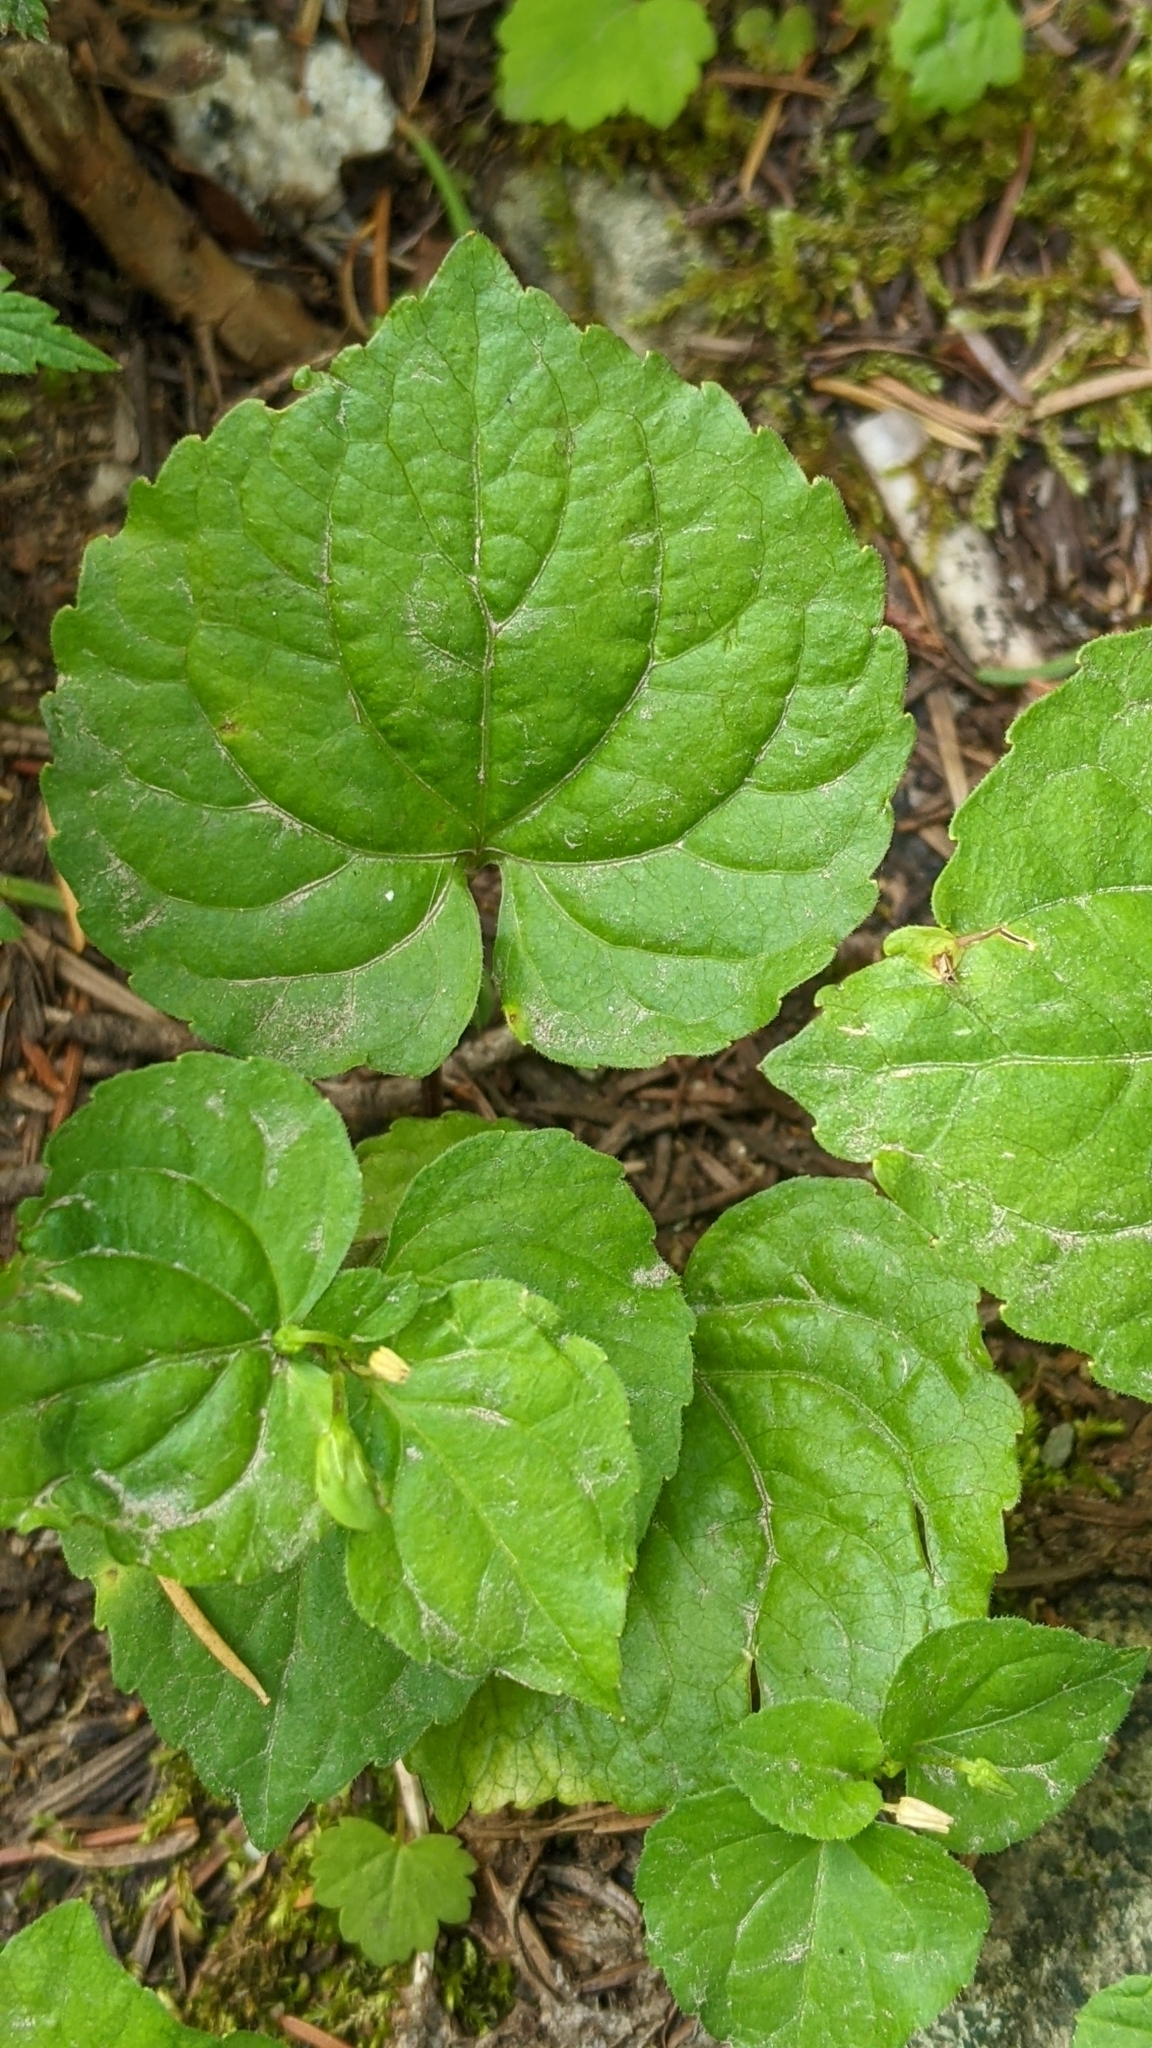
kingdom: Plantae
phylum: Tracheophyta
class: Magnoliopsida
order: Malpighiales
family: Violaceae
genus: Viola
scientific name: Viola glabella
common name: Stream violet
